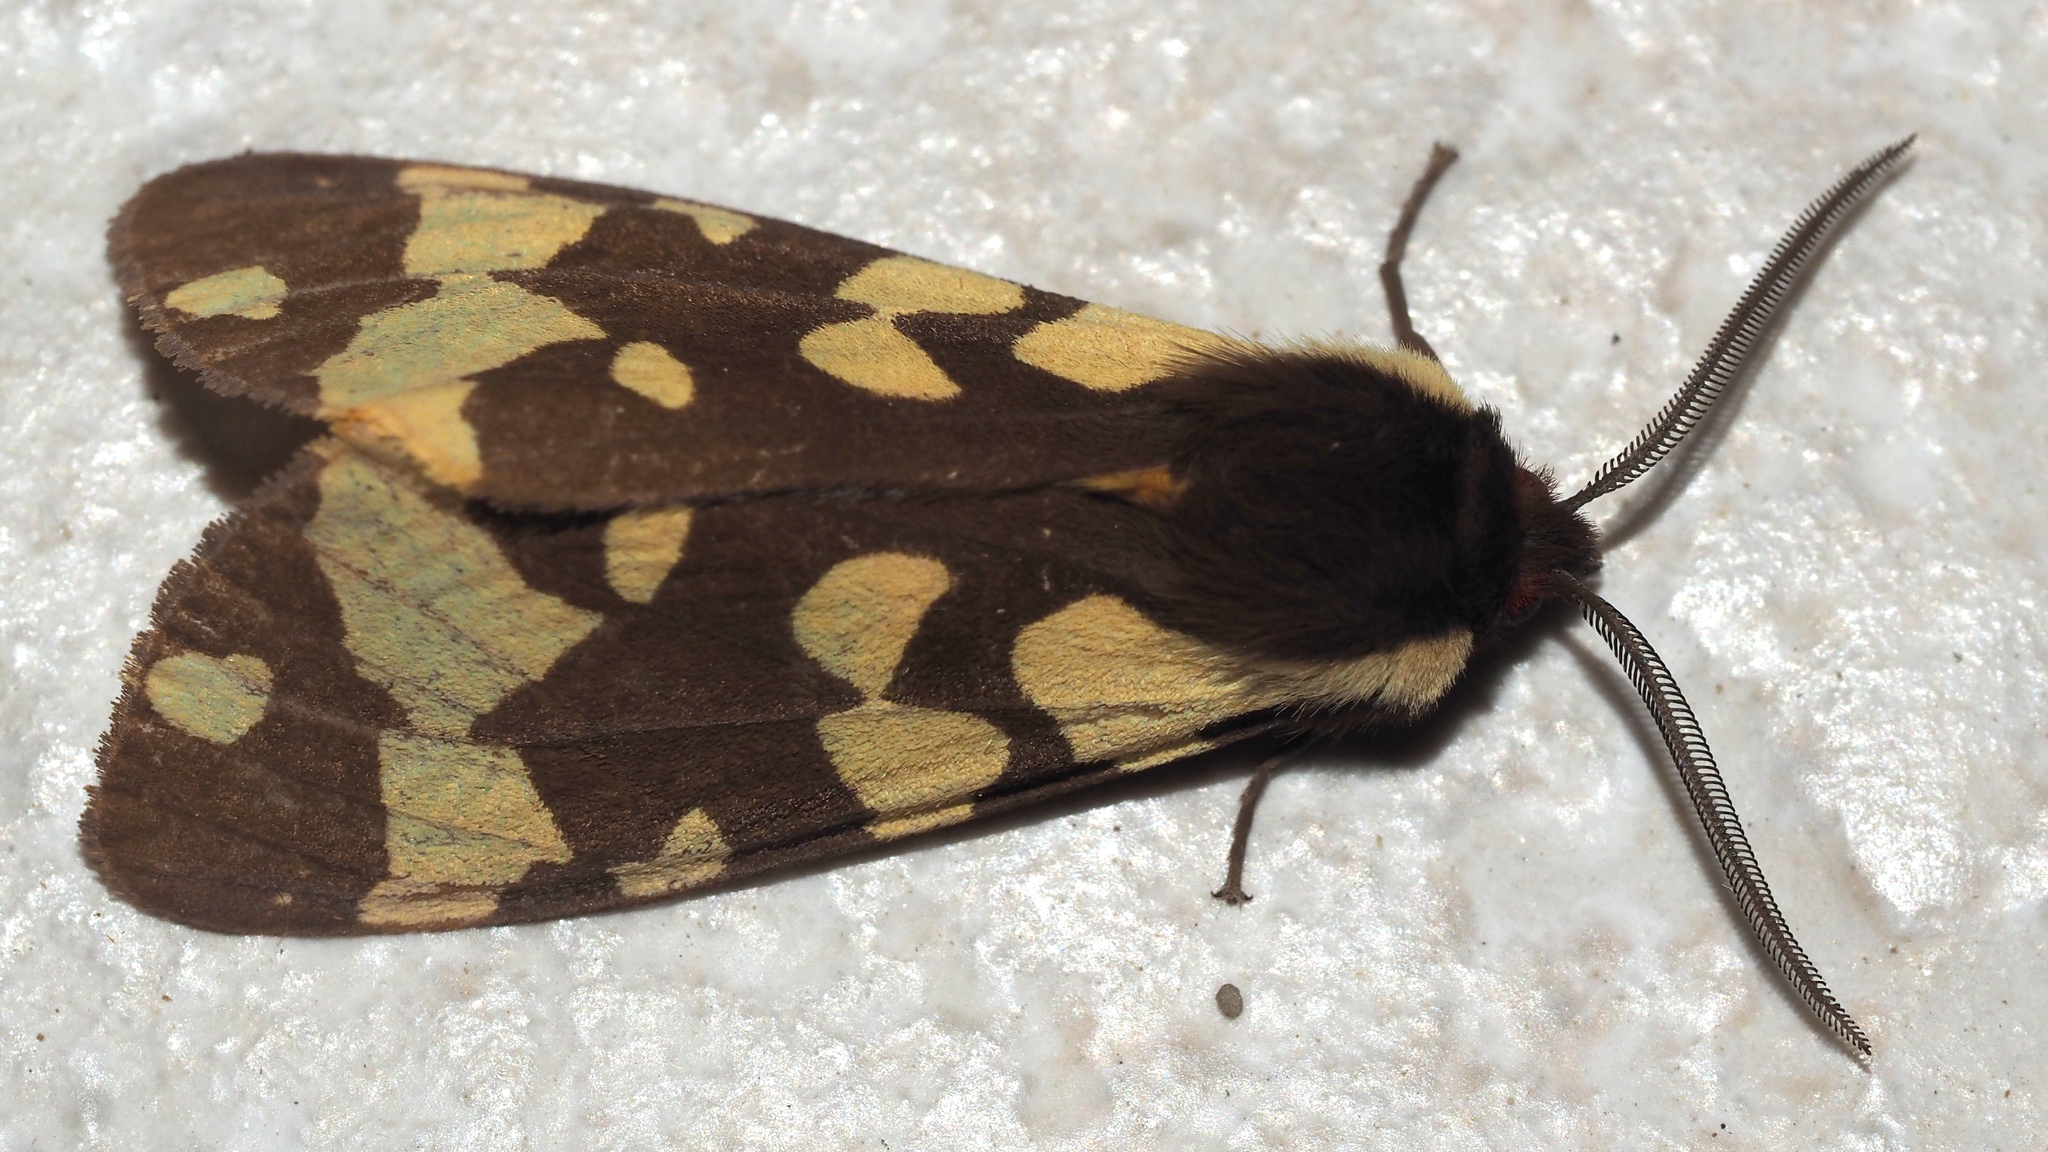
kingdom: Animalia
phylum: Arthropoda
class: Insecta
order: Lepidoptera
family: Erebidae
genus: Epicallia
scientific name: Epicallia villica
